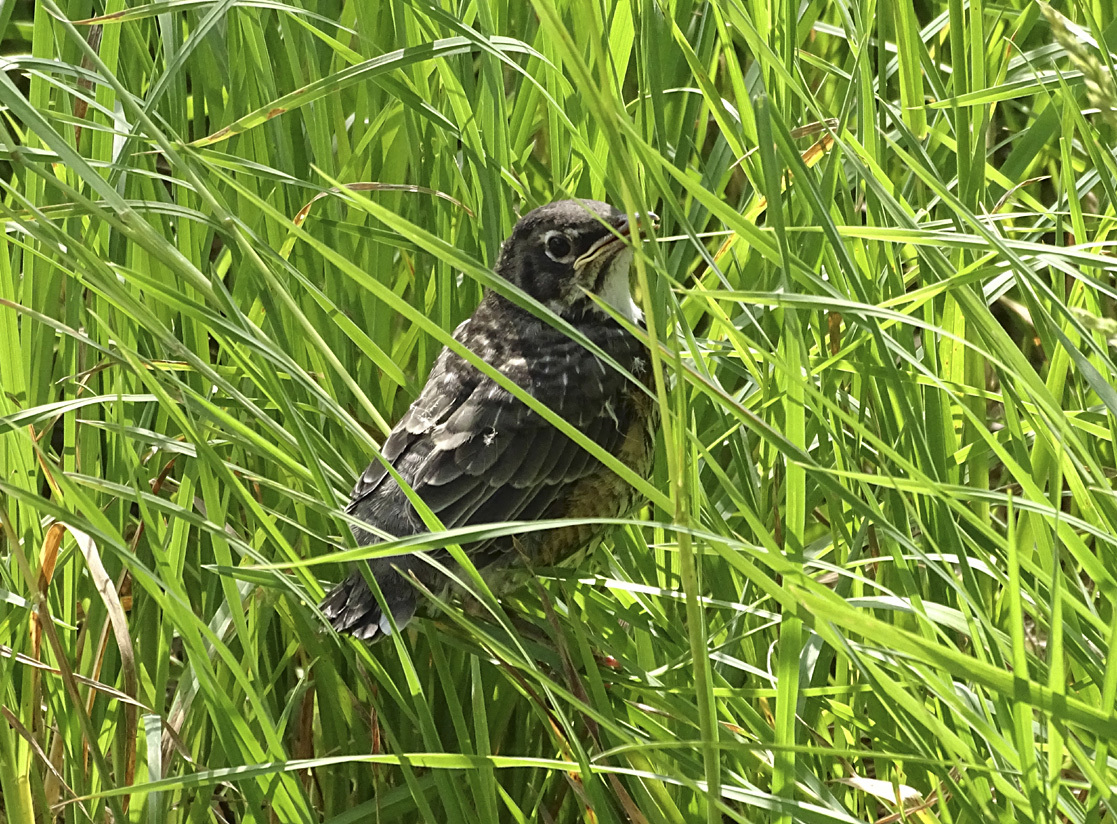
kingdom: Animalia
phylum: Chordata
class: Aves
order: Passeriformes
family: Turdidae
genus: Turdus
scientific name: Turdus migratorius
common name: American robin
